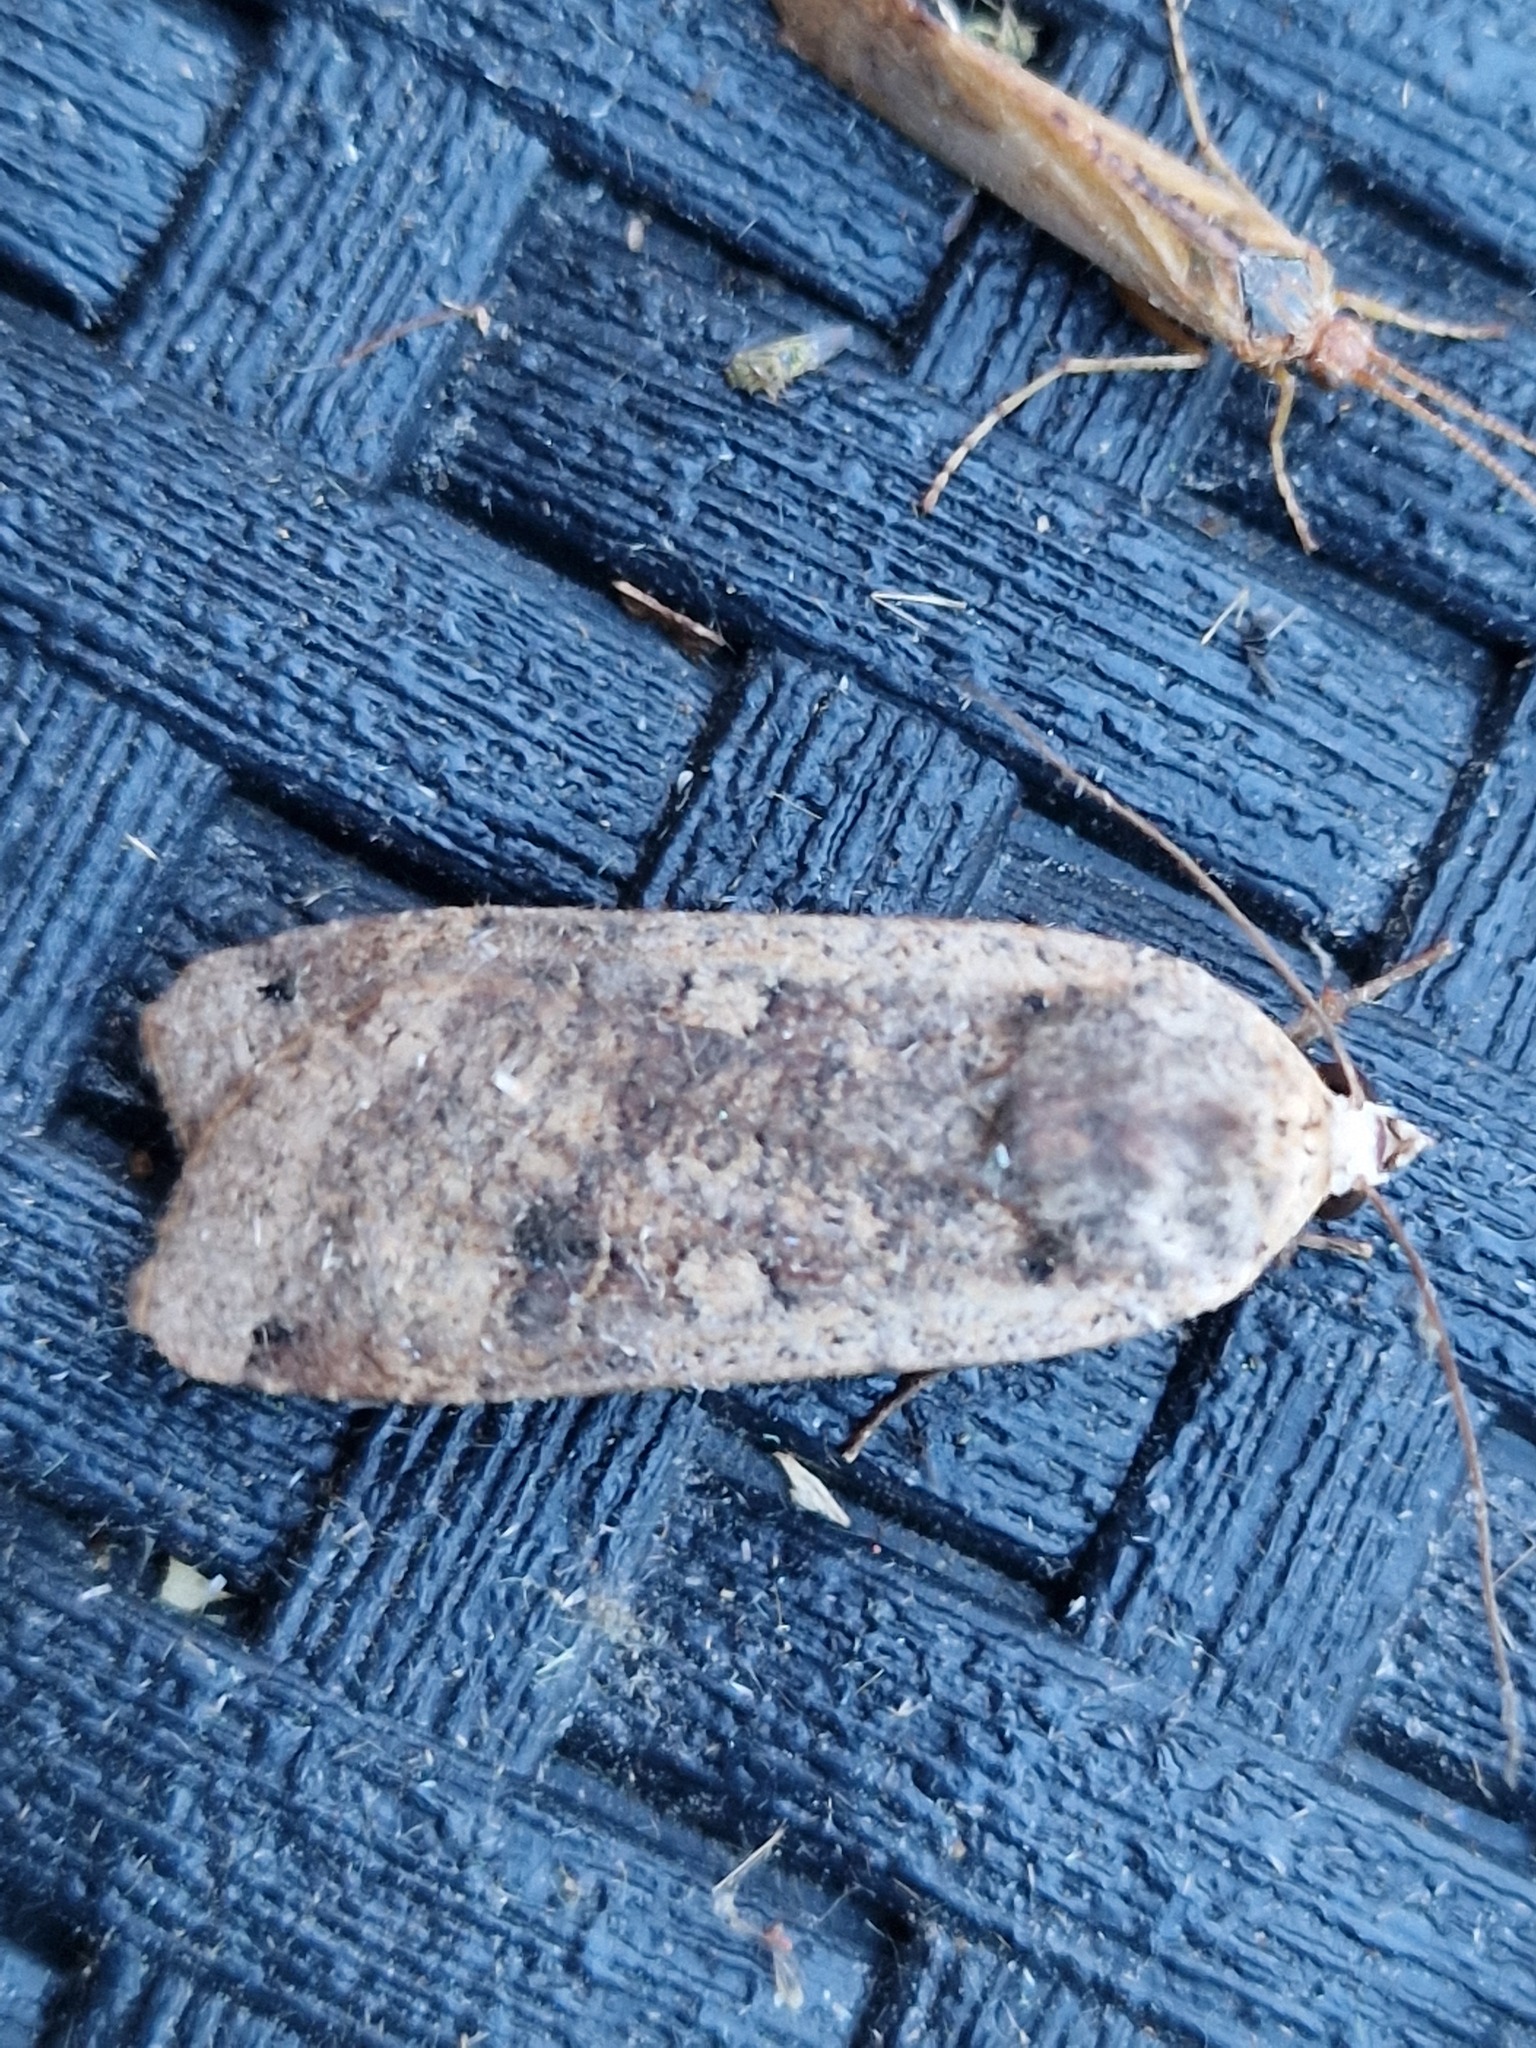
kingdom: Animalia
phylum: Arthropoda
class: Insecta
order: Lepidoptera
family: Noctuidae
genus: Noctua
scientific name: Noctua pronuba
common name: Large yellow underwing
